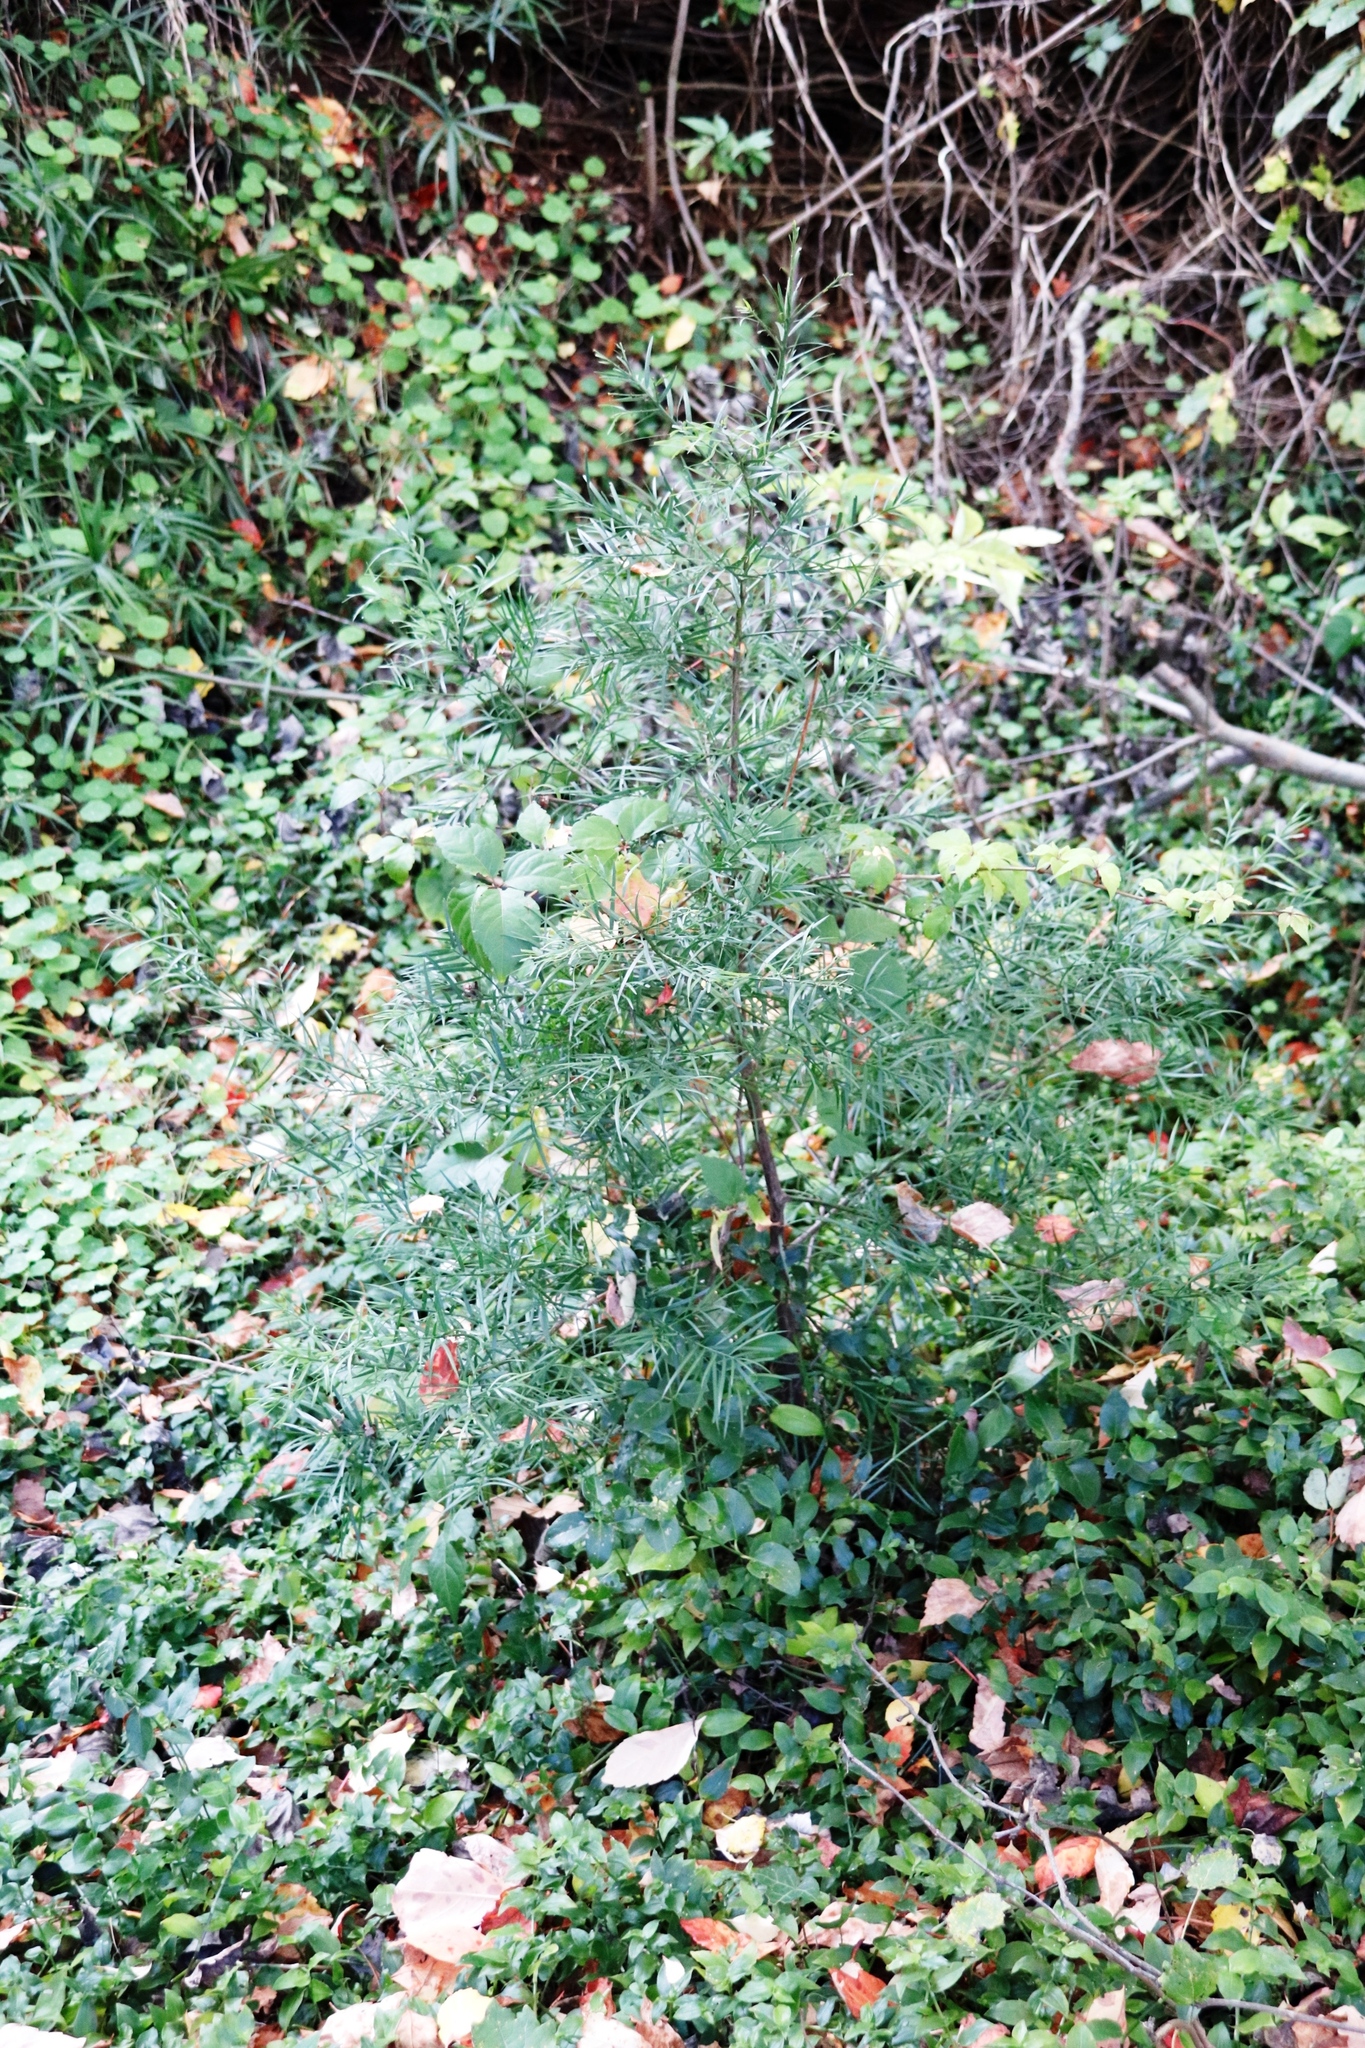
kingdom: Plantae
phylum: Tracheophyta
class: Pinopsida
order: Pinales
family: Podocarpaceae
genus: Afrocarpus
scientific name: Afrocarpus falcatus
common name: Bastard yellowwood
